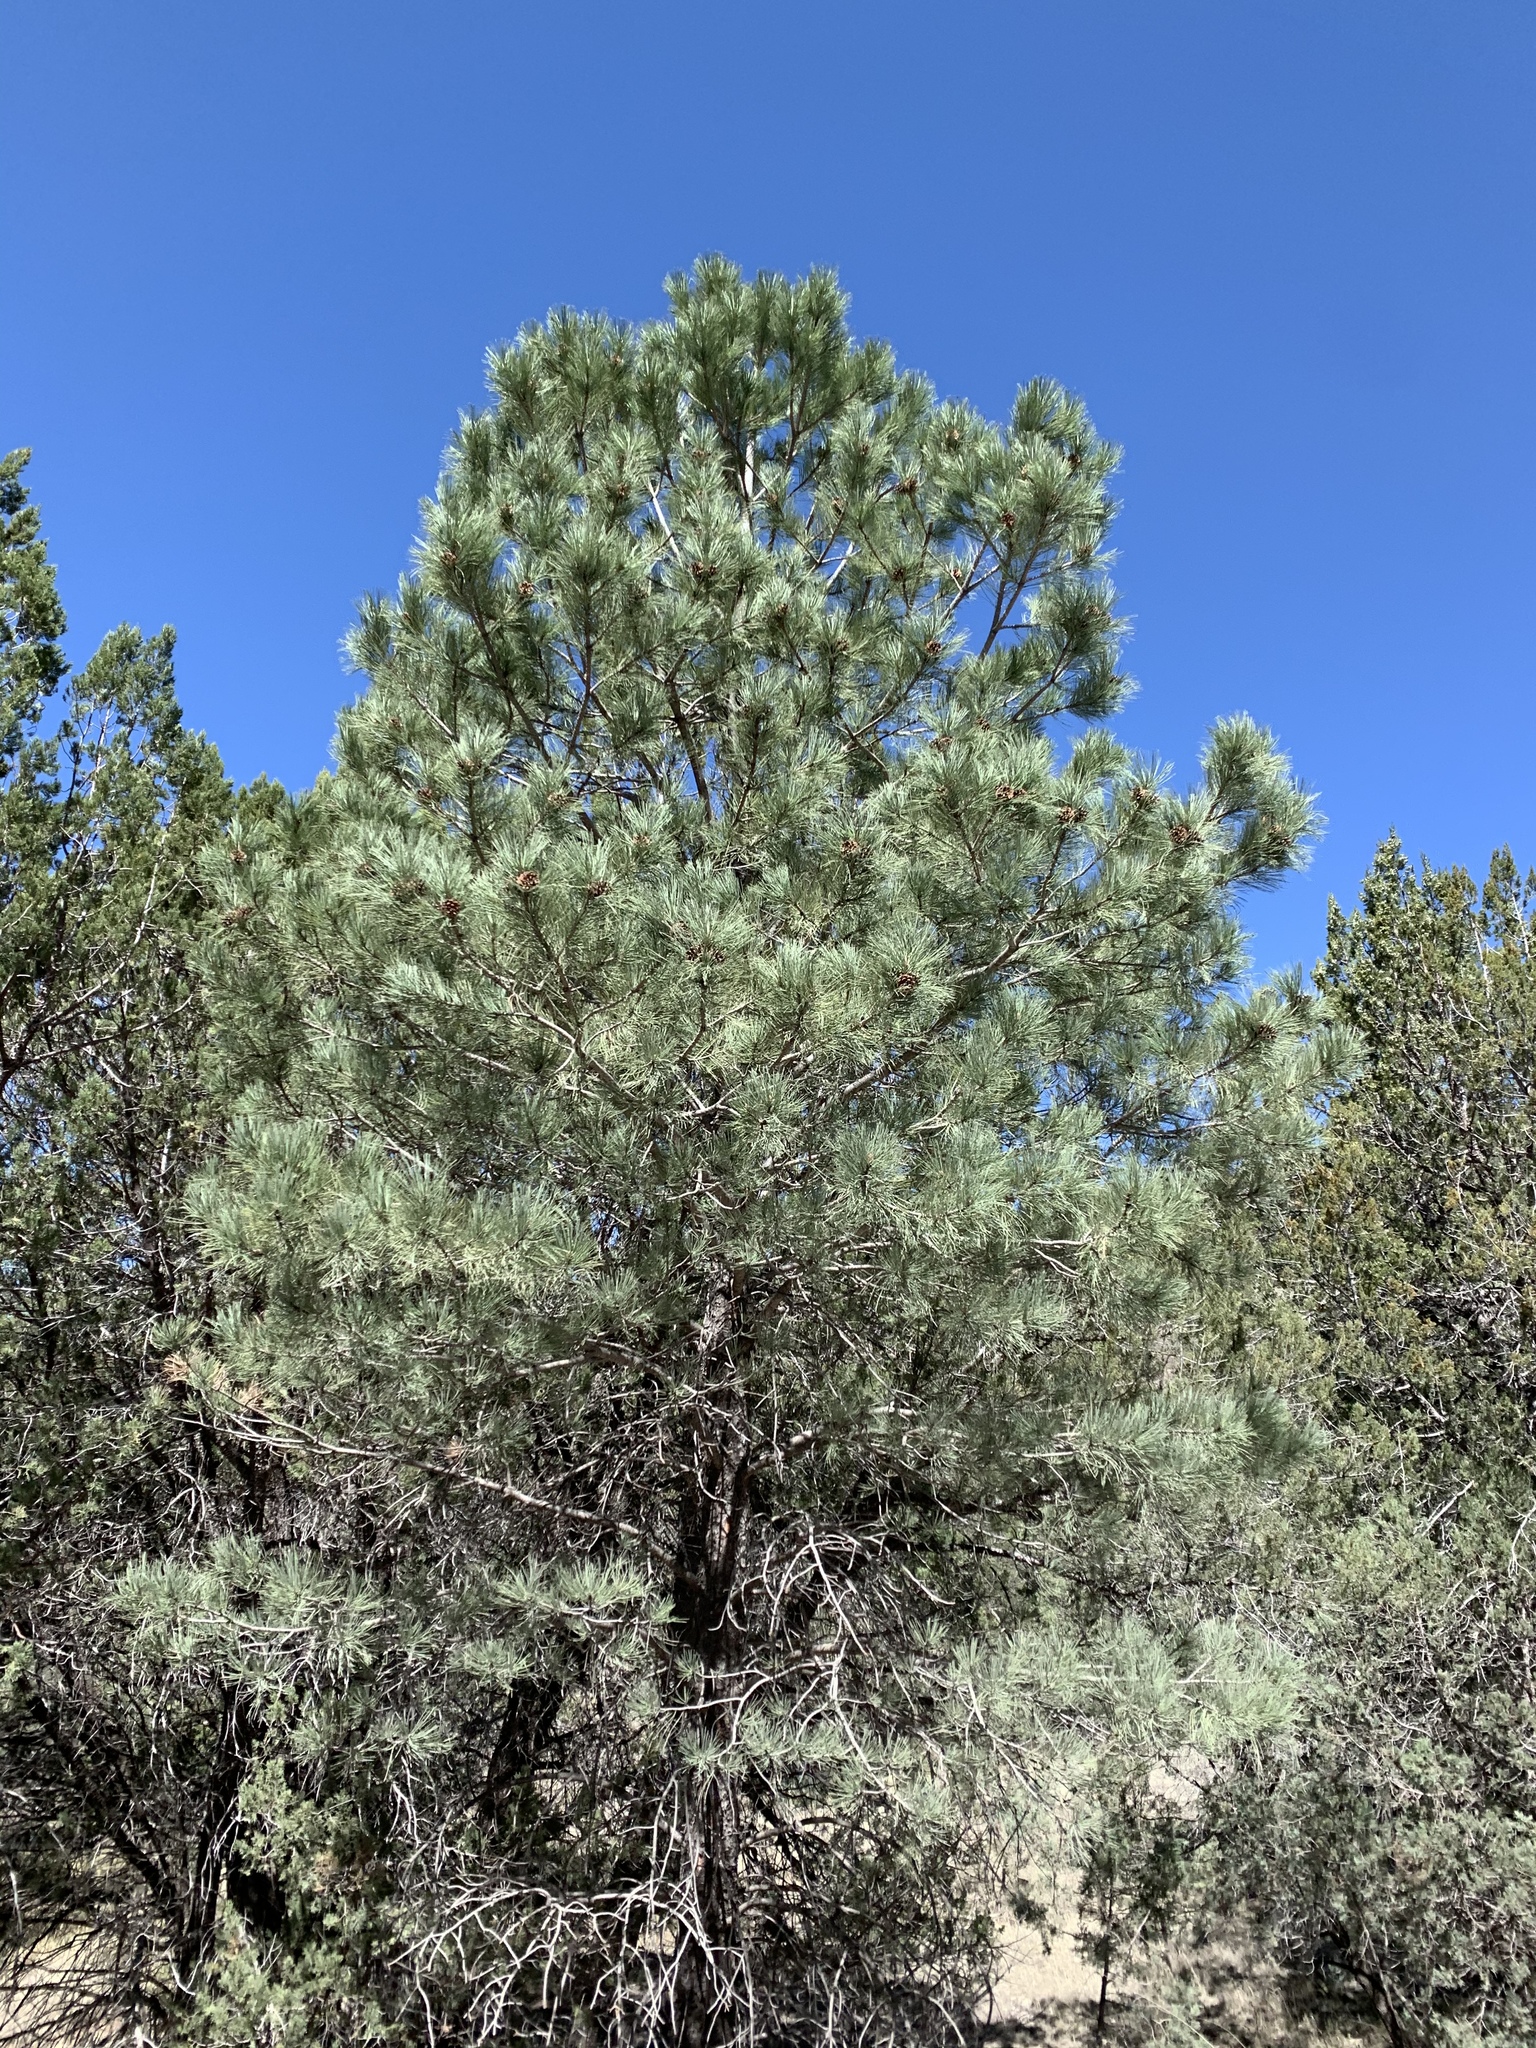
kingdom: Plantae
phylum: Tracheophyta
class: Pinopsida
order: Pinales
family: Pinaceae
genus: Pinus
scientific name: Pinus ponderosa
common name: Western yellow-pine
